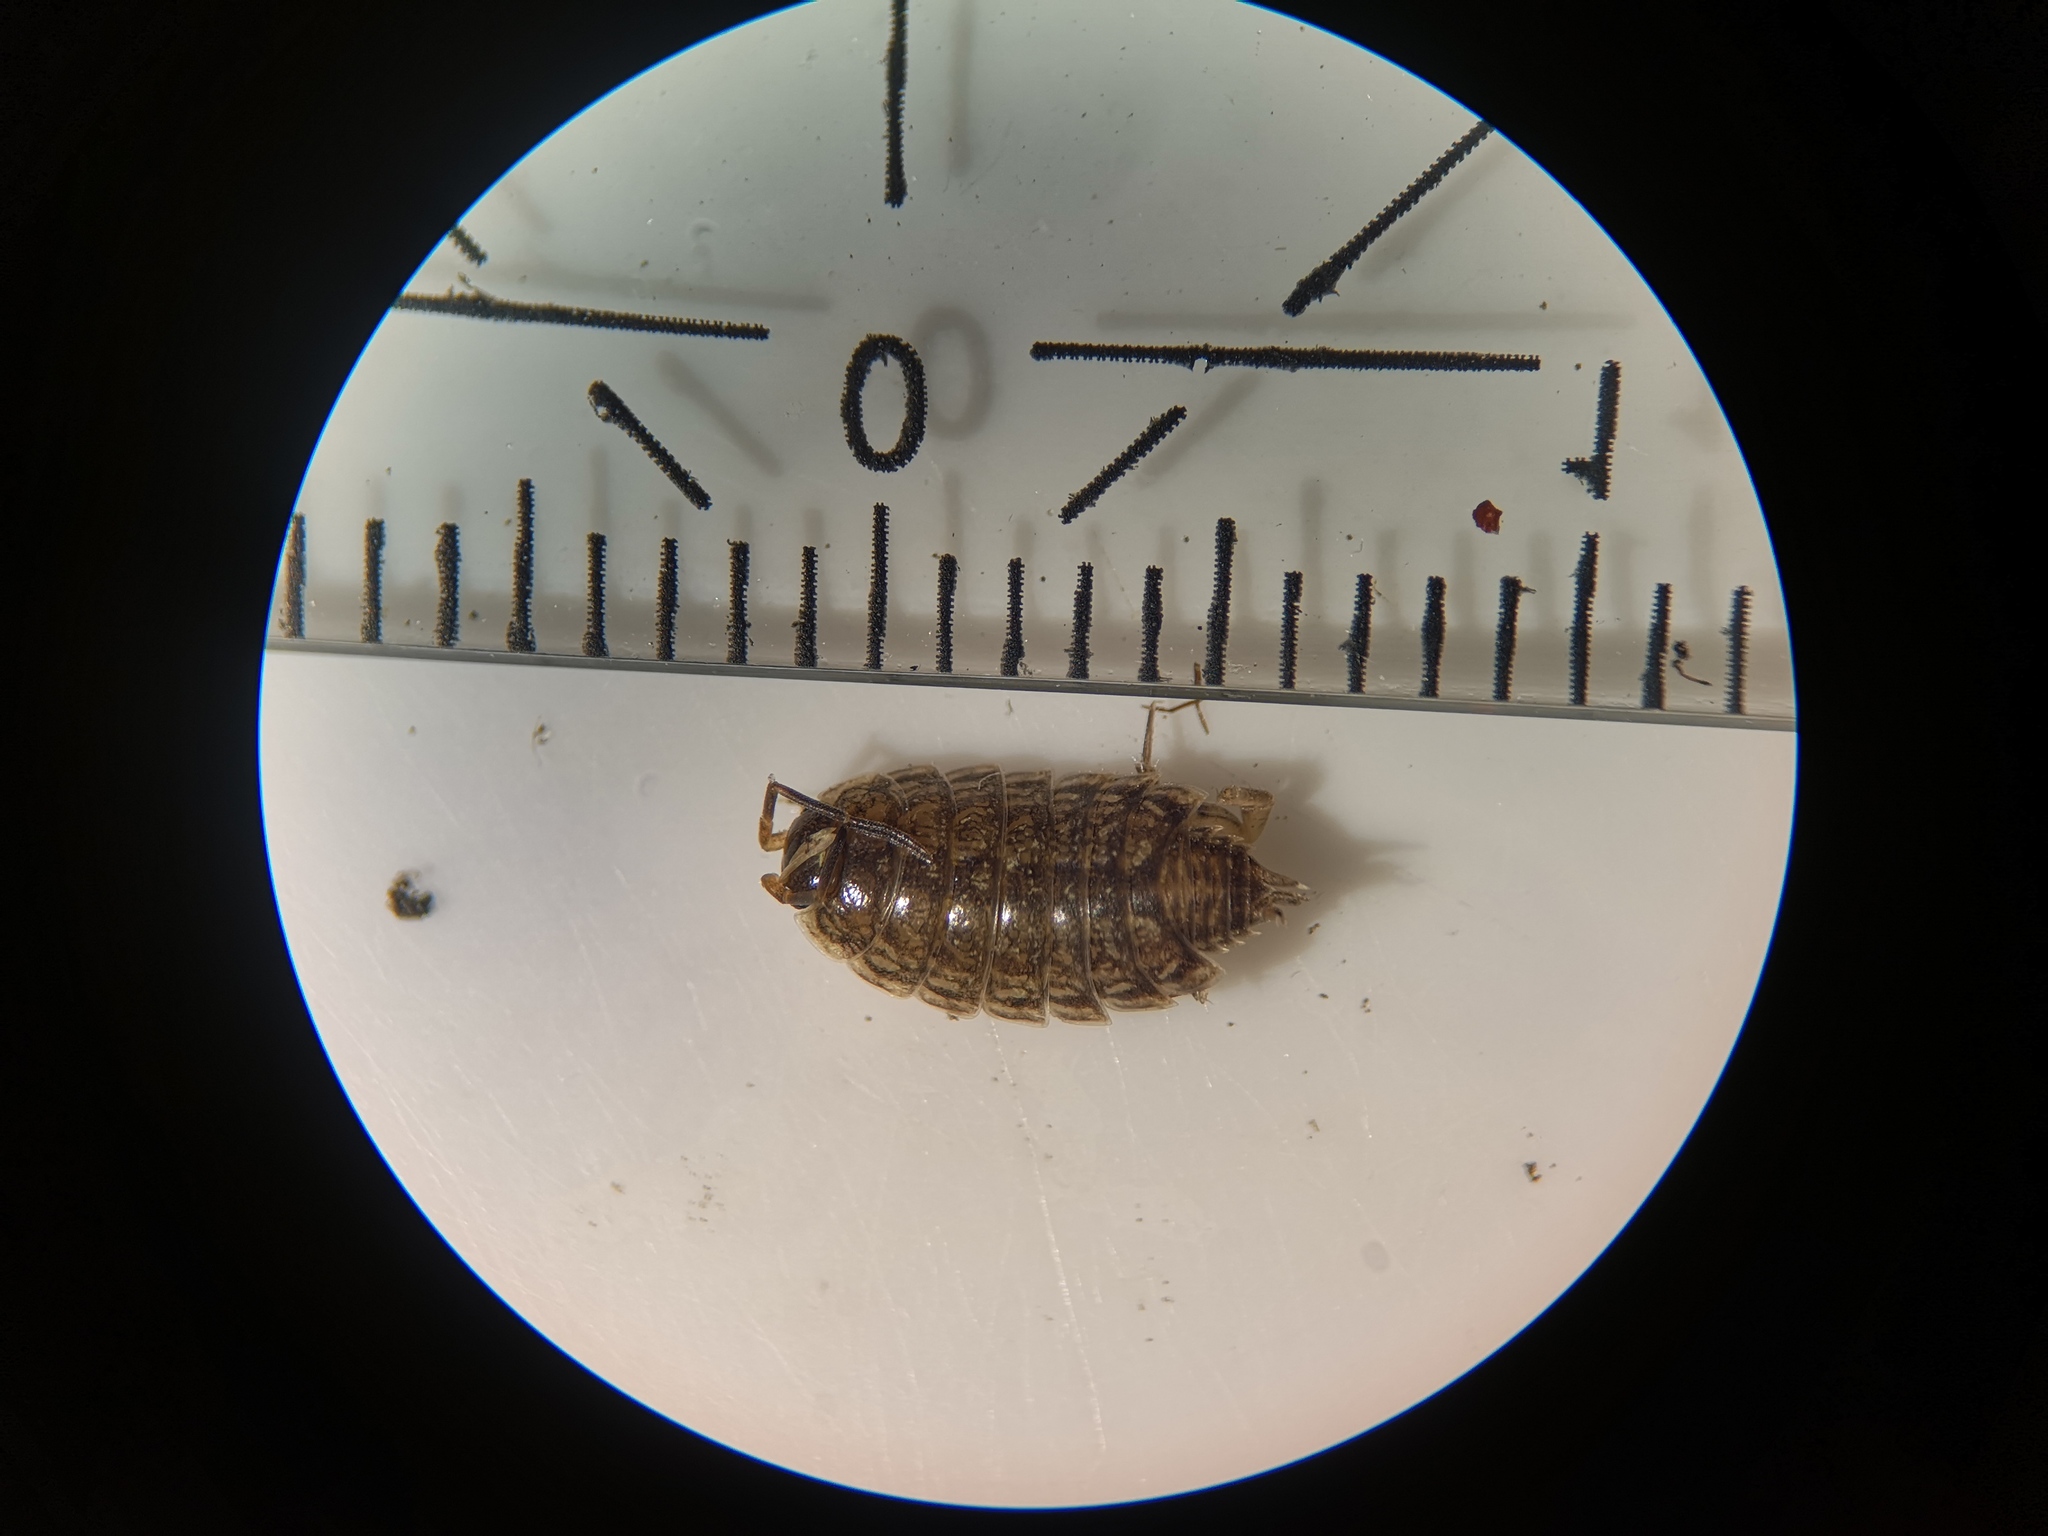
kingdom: Animalia
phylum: Arthropoda
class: Malacostraca
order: Isopoda
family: Philosciidae
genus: Philoscia
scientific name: Philoscia muscorum
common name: Common striped woodlouse
